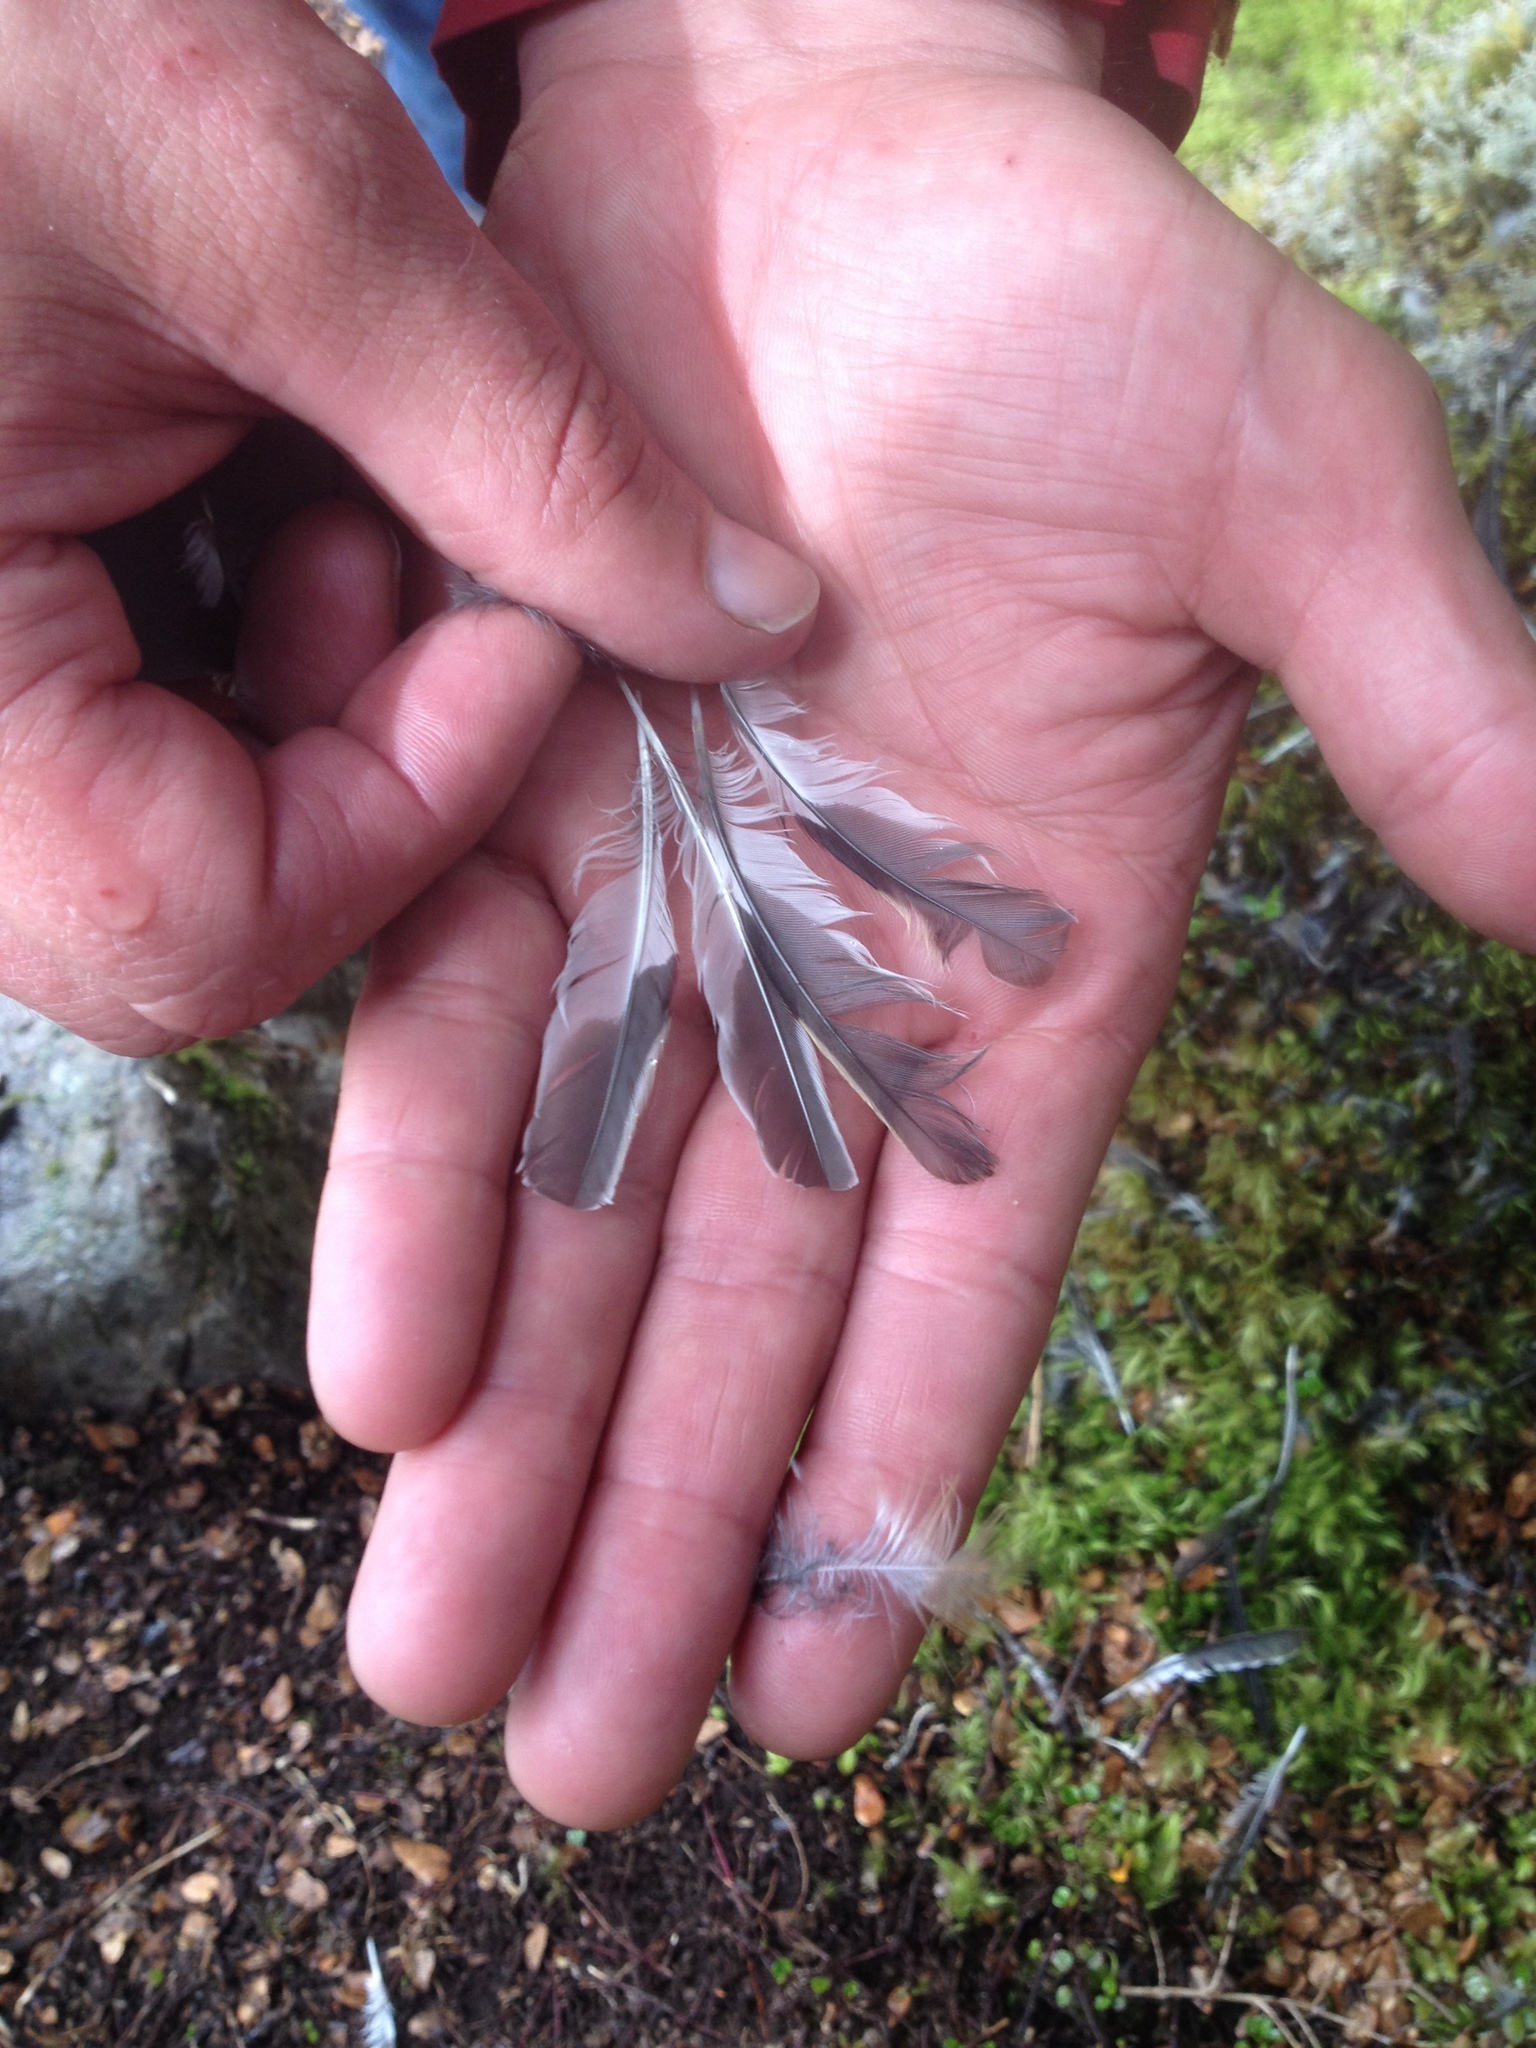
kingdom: Animalia
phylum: Chordata
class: Aves
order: Passeriformes
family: Petroicidae
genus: Petroica
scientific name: Petroica macrocephala
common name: Tomtit
